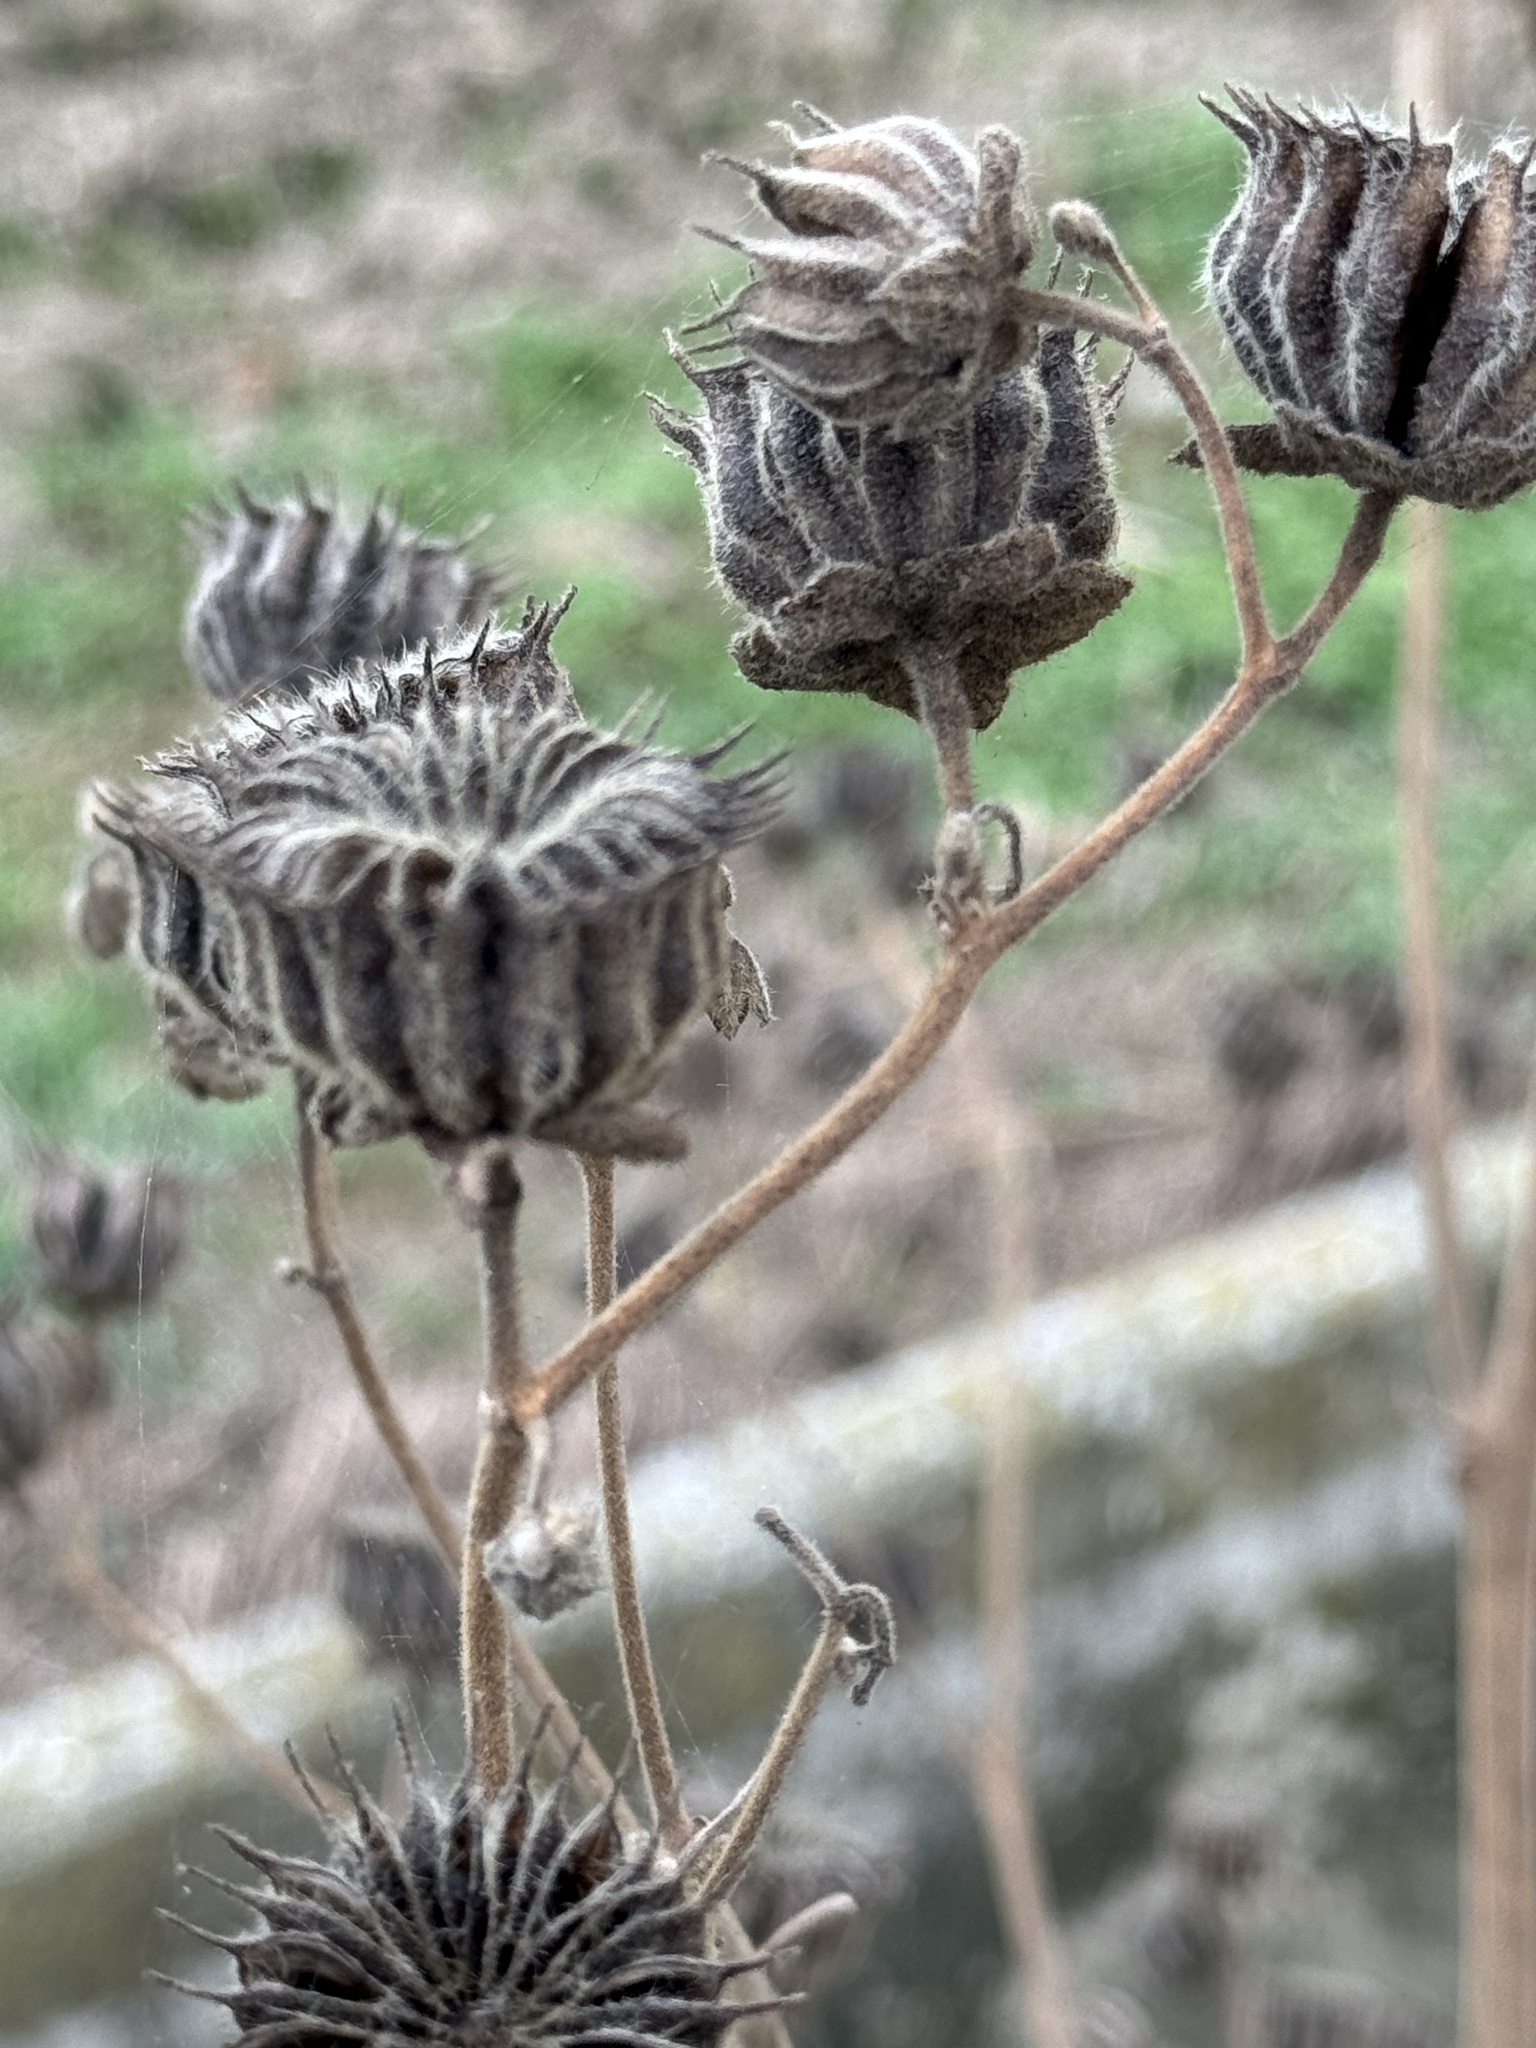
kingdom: Plantae
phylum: Tracheophyta
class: Magnoliopsida
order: Malvales
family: Malvaceae
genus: Abutilon
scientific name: Abutilon theophrasti
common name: Velvetleaf
